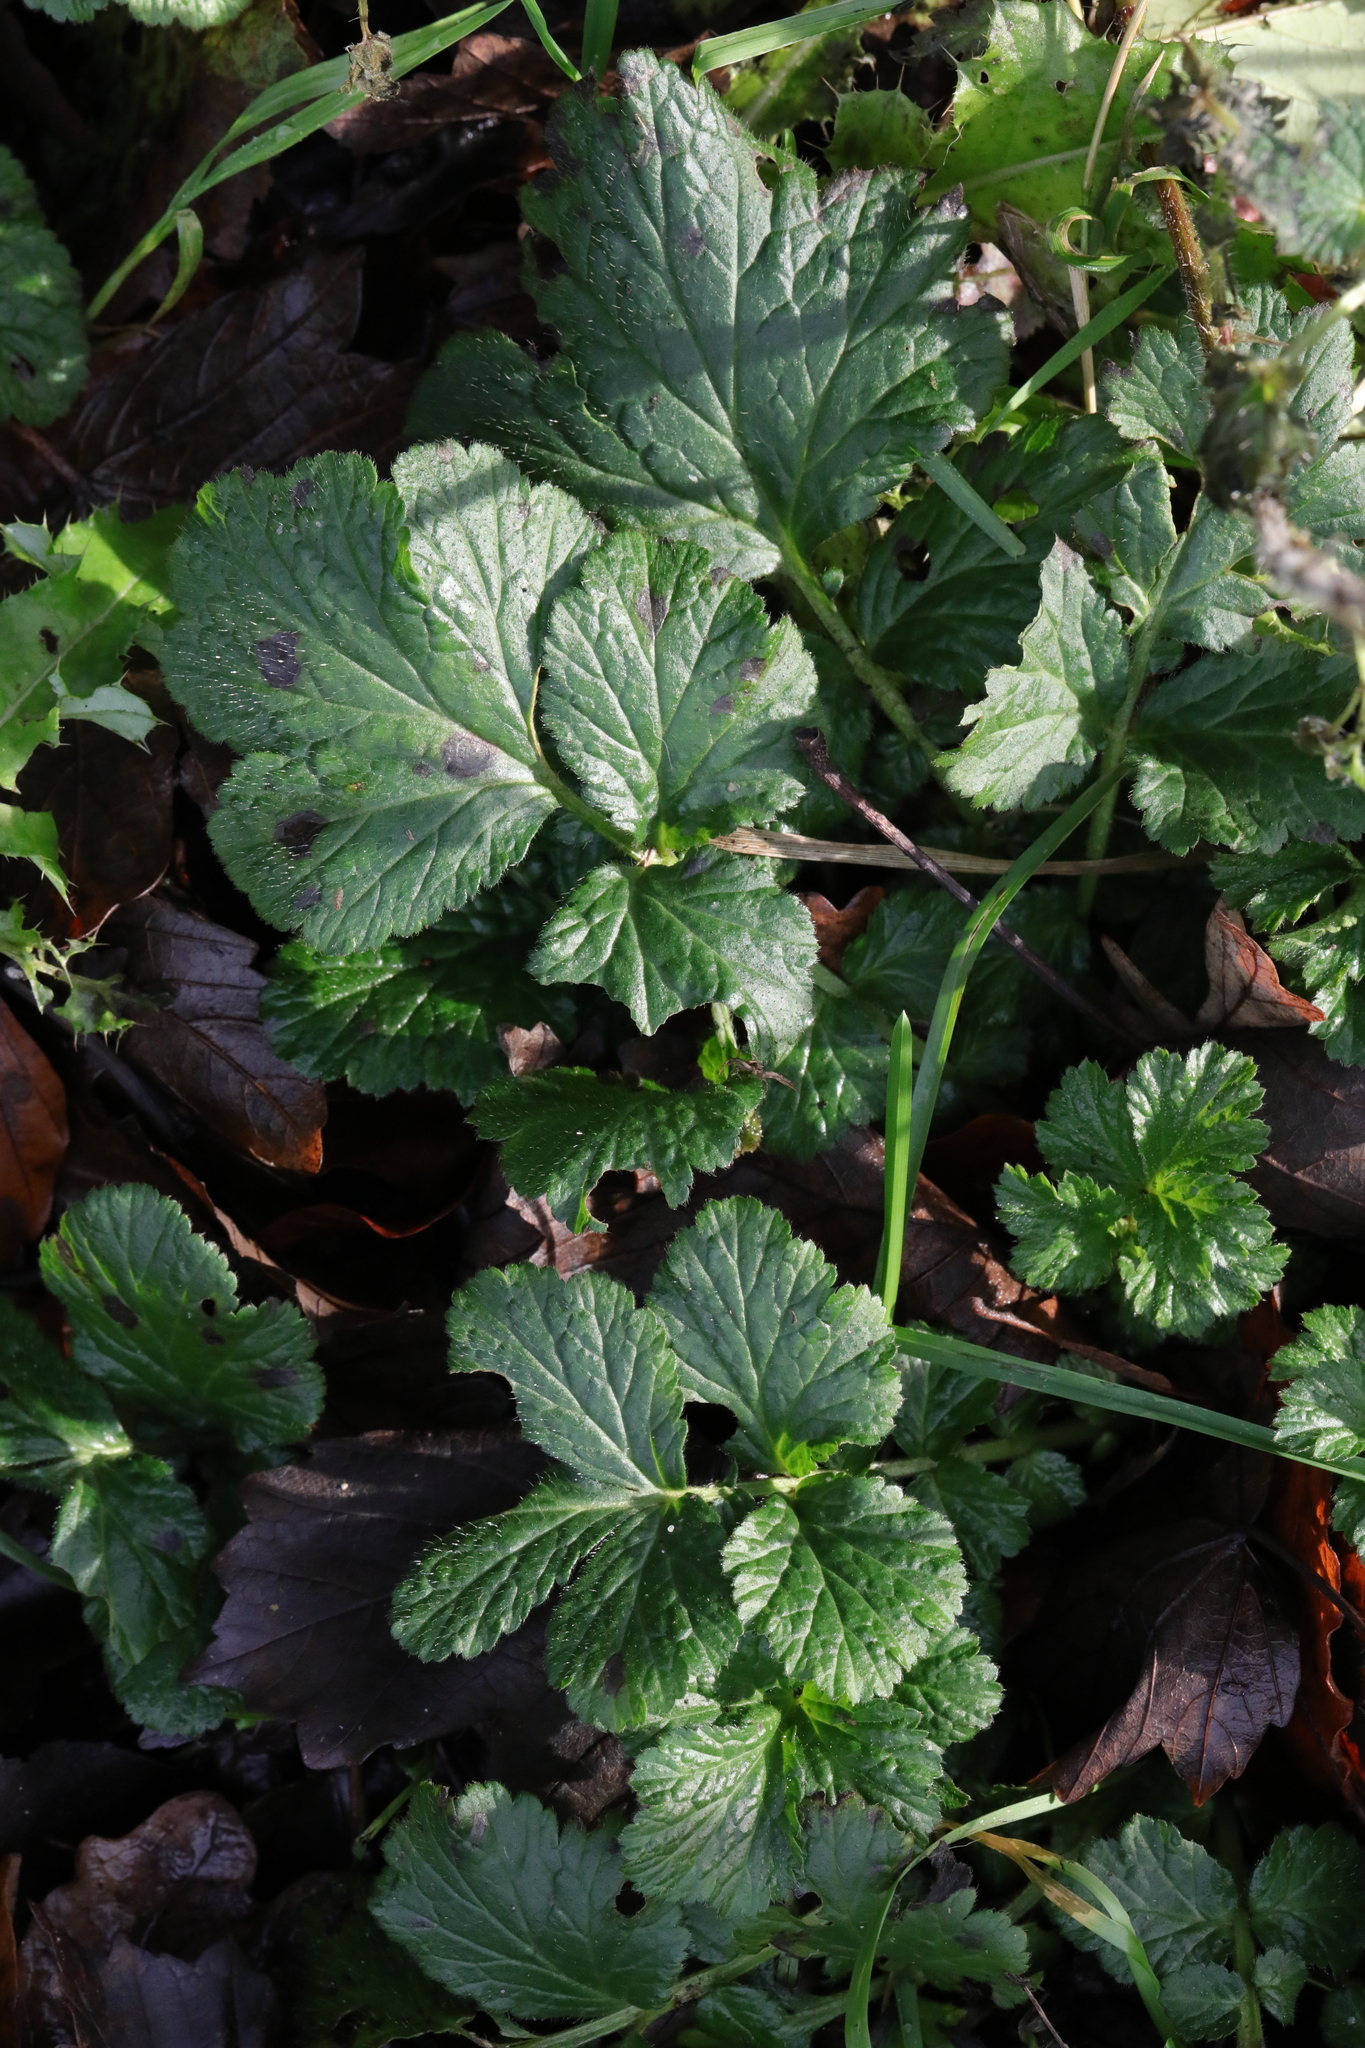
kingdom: Plantae
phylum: Tracheophyta
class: Magnoliopsida
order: Rosales
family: Rosaceae
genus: Geum
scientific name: Geum urbanum
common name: Wood avens
